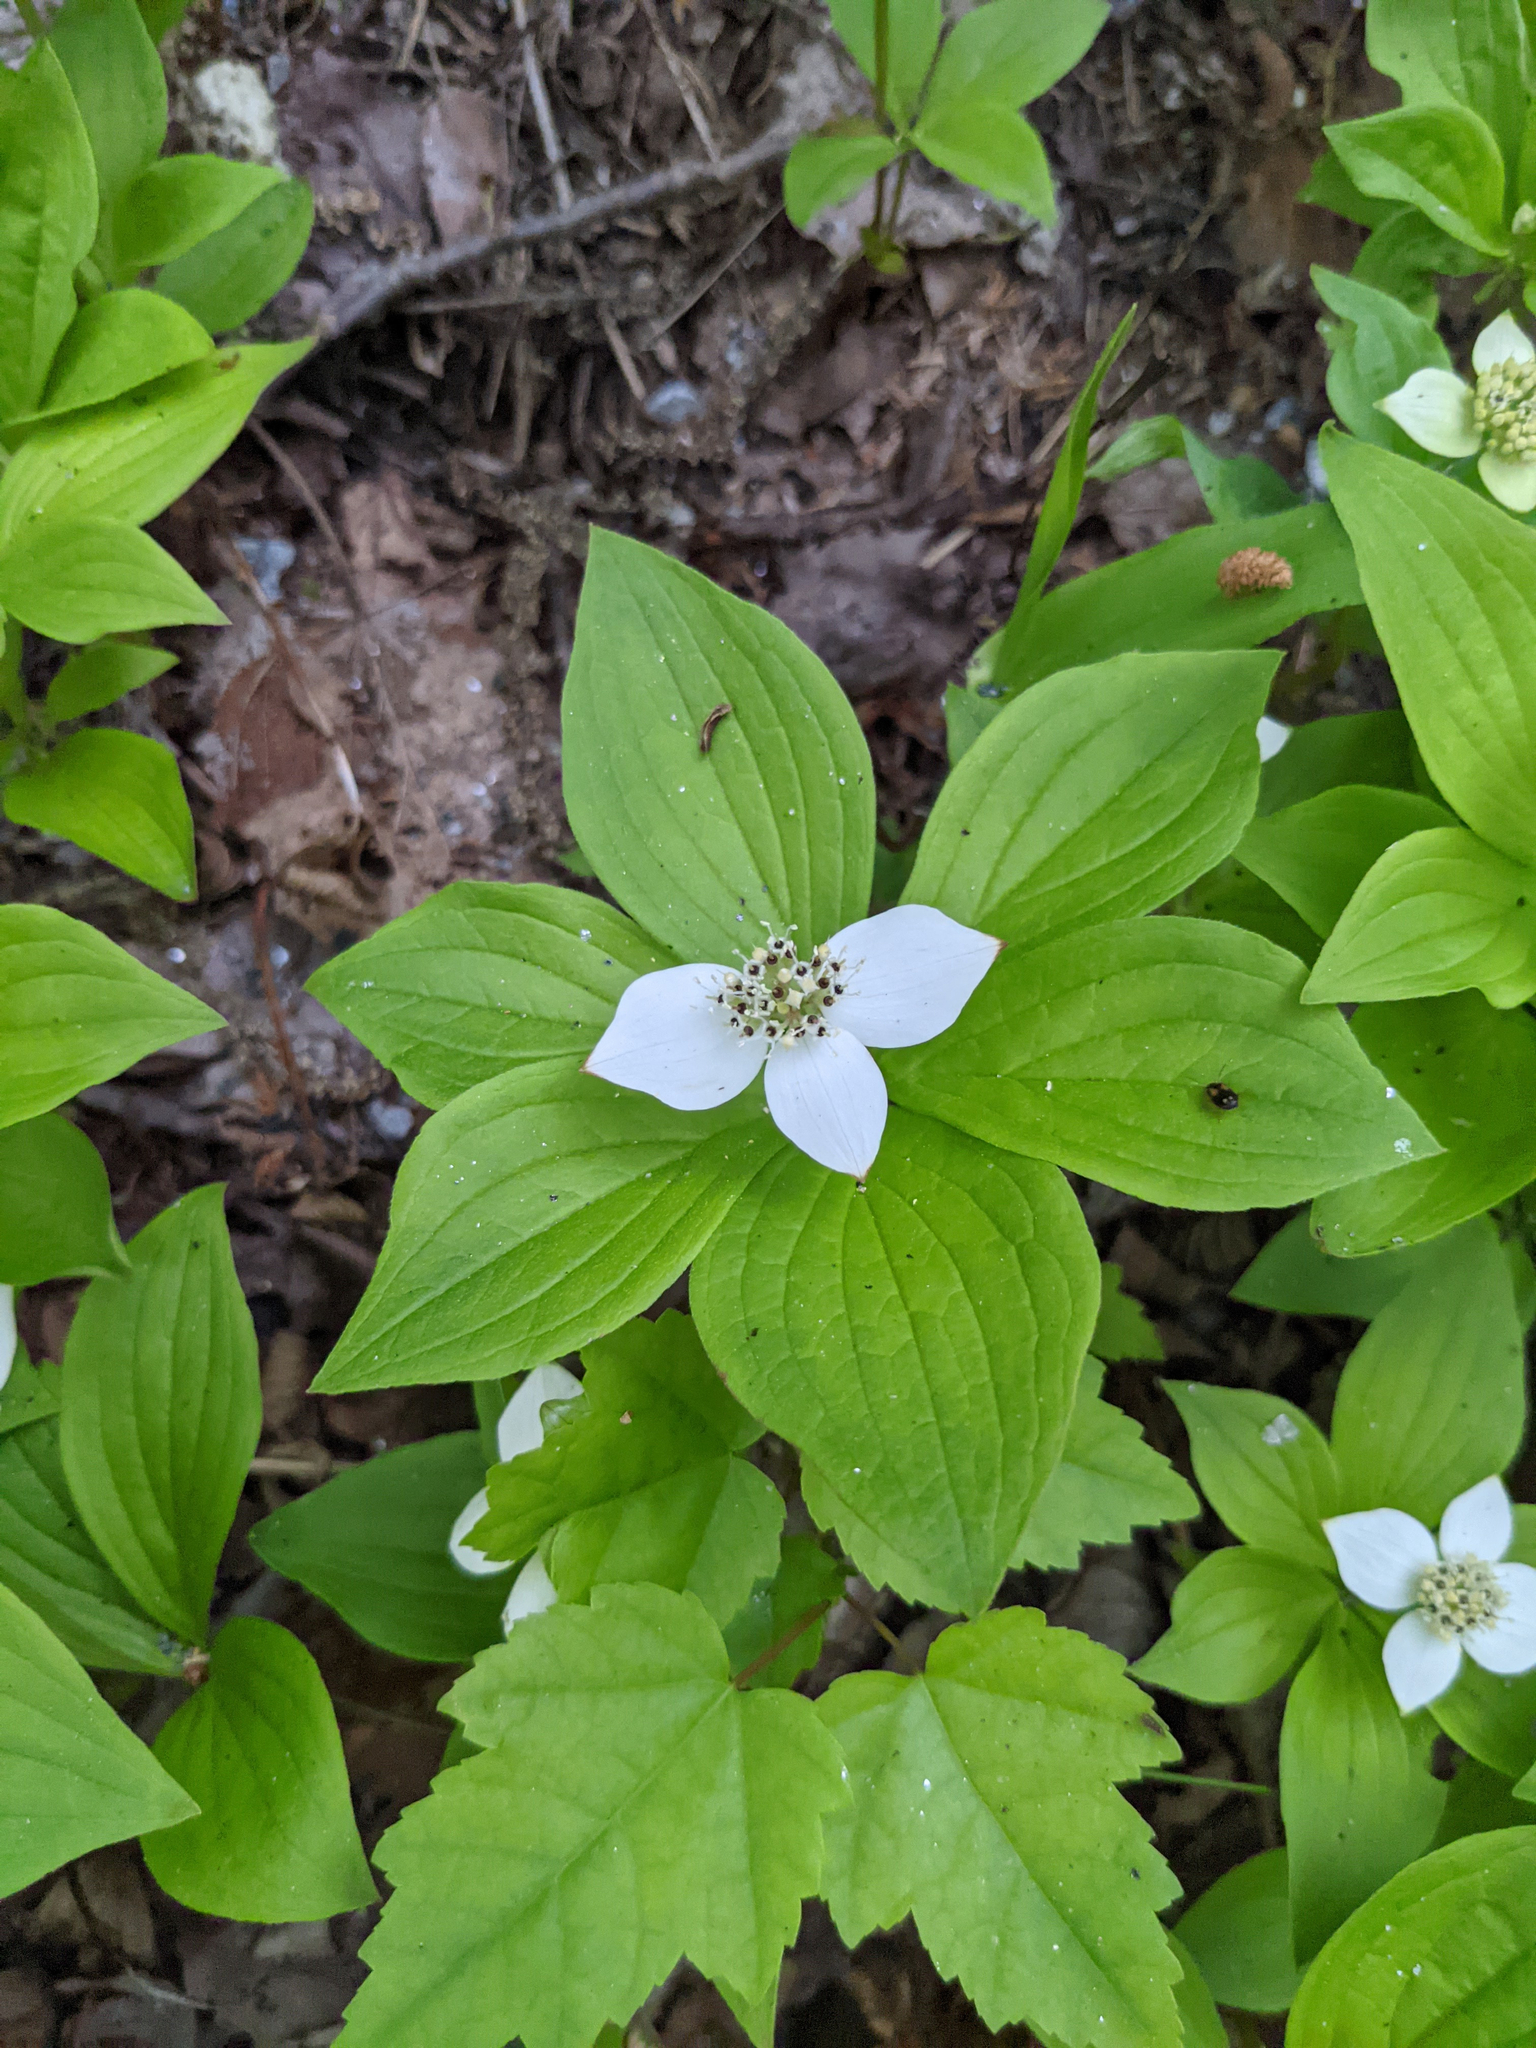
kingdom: Plantae
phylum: Tracheophyta
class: Magnoliopsida
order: Cornales
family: Cornaceae
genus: Cornus
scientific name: Cornus canadensis
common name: Creeping dogwood
